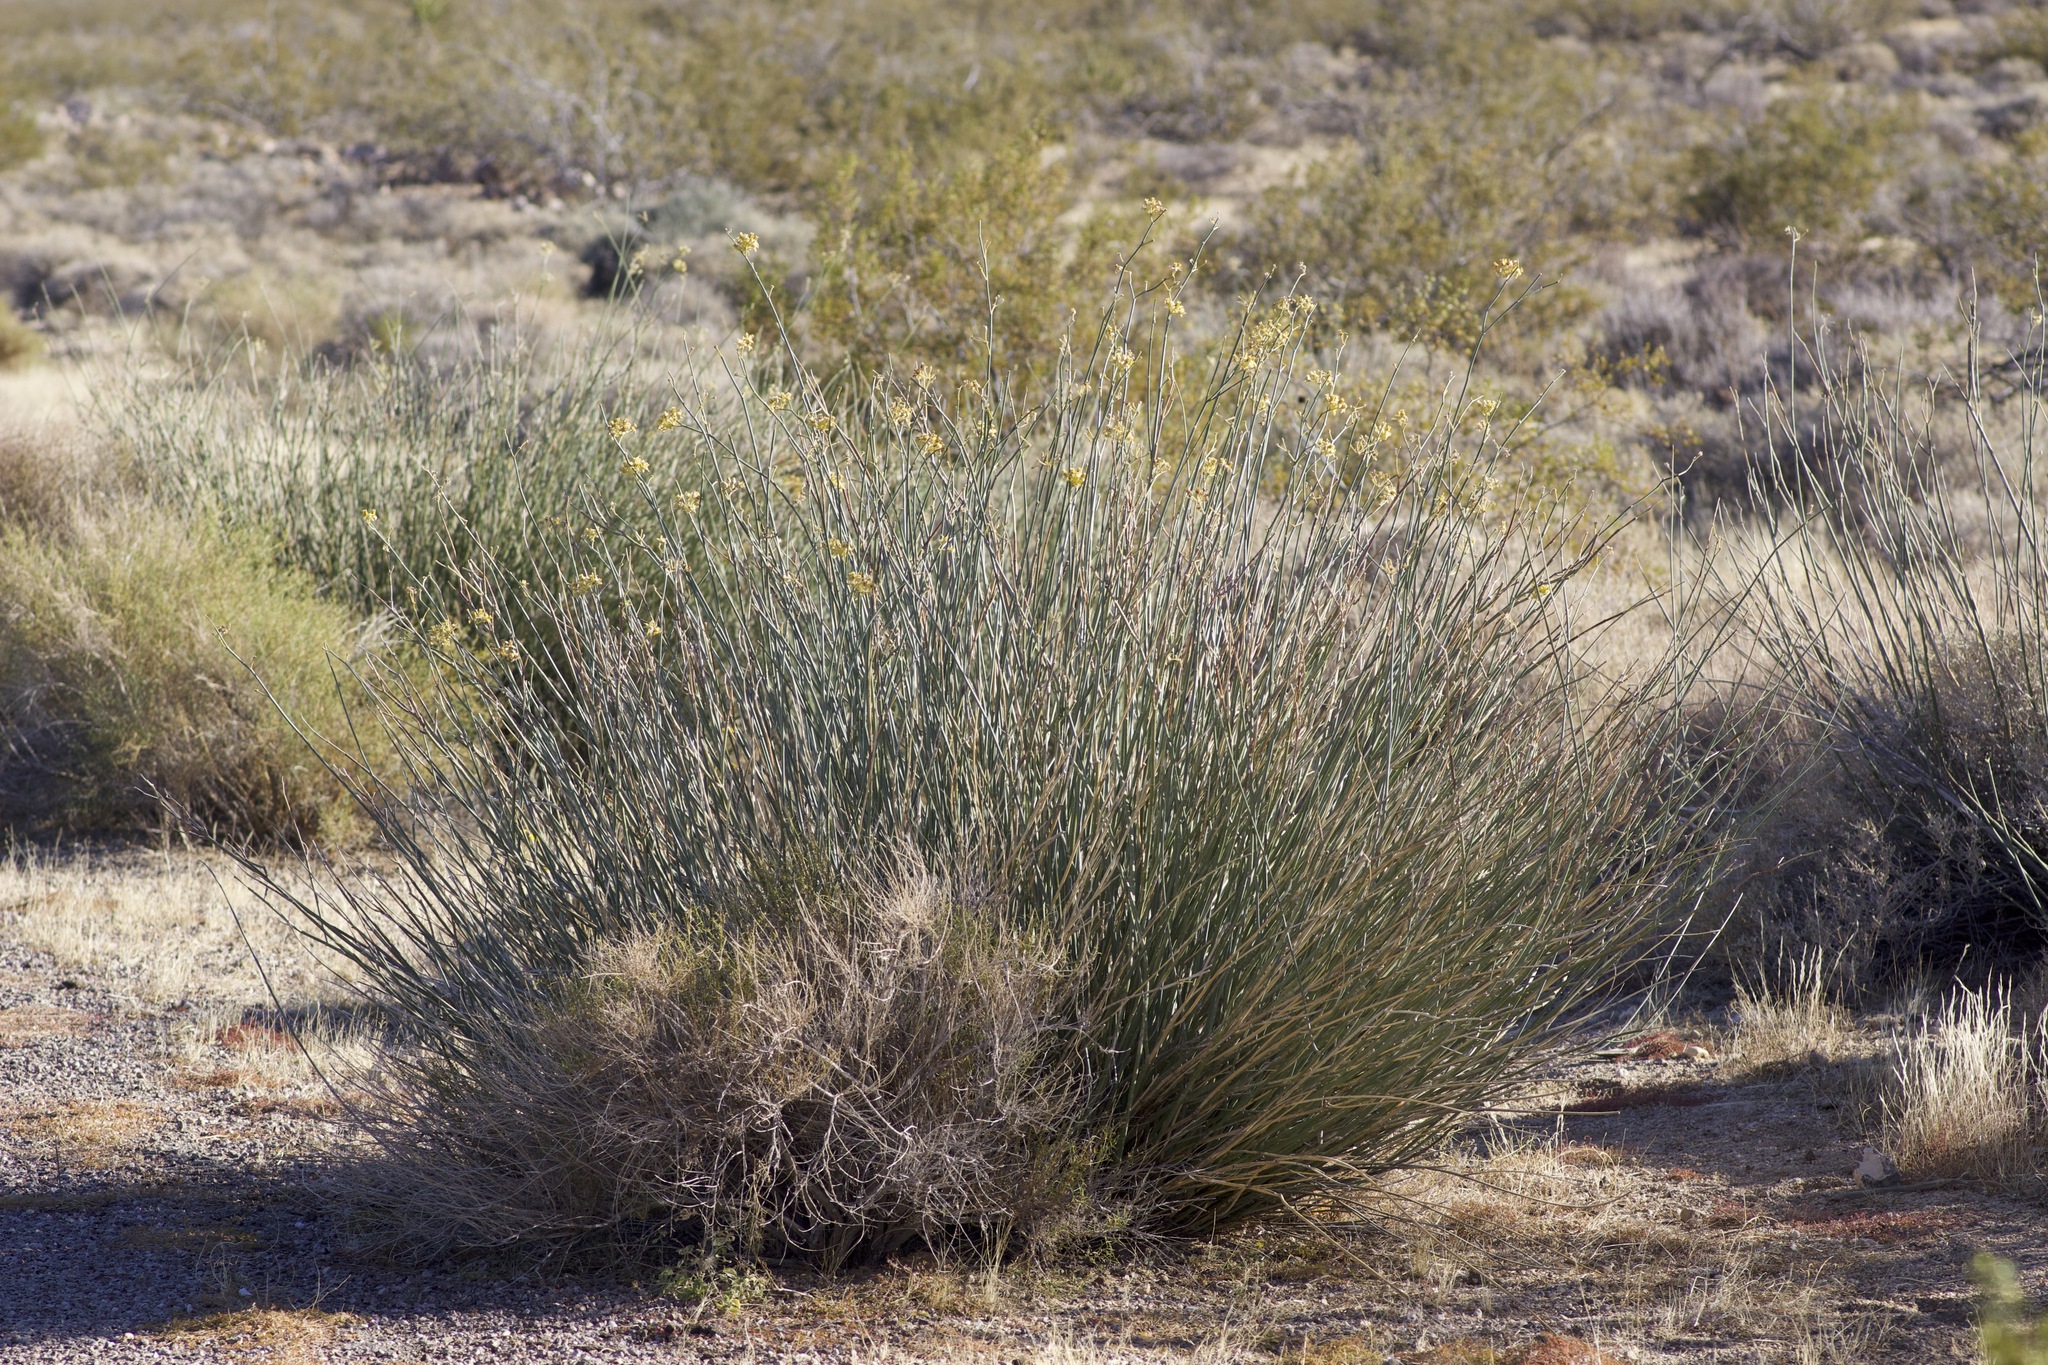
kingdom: Plantae
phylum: Tracheophyta
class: Magnoliopsida
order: Gentianales
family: Apocynaceae
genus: Asclepias
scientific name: Asclepias subulata
